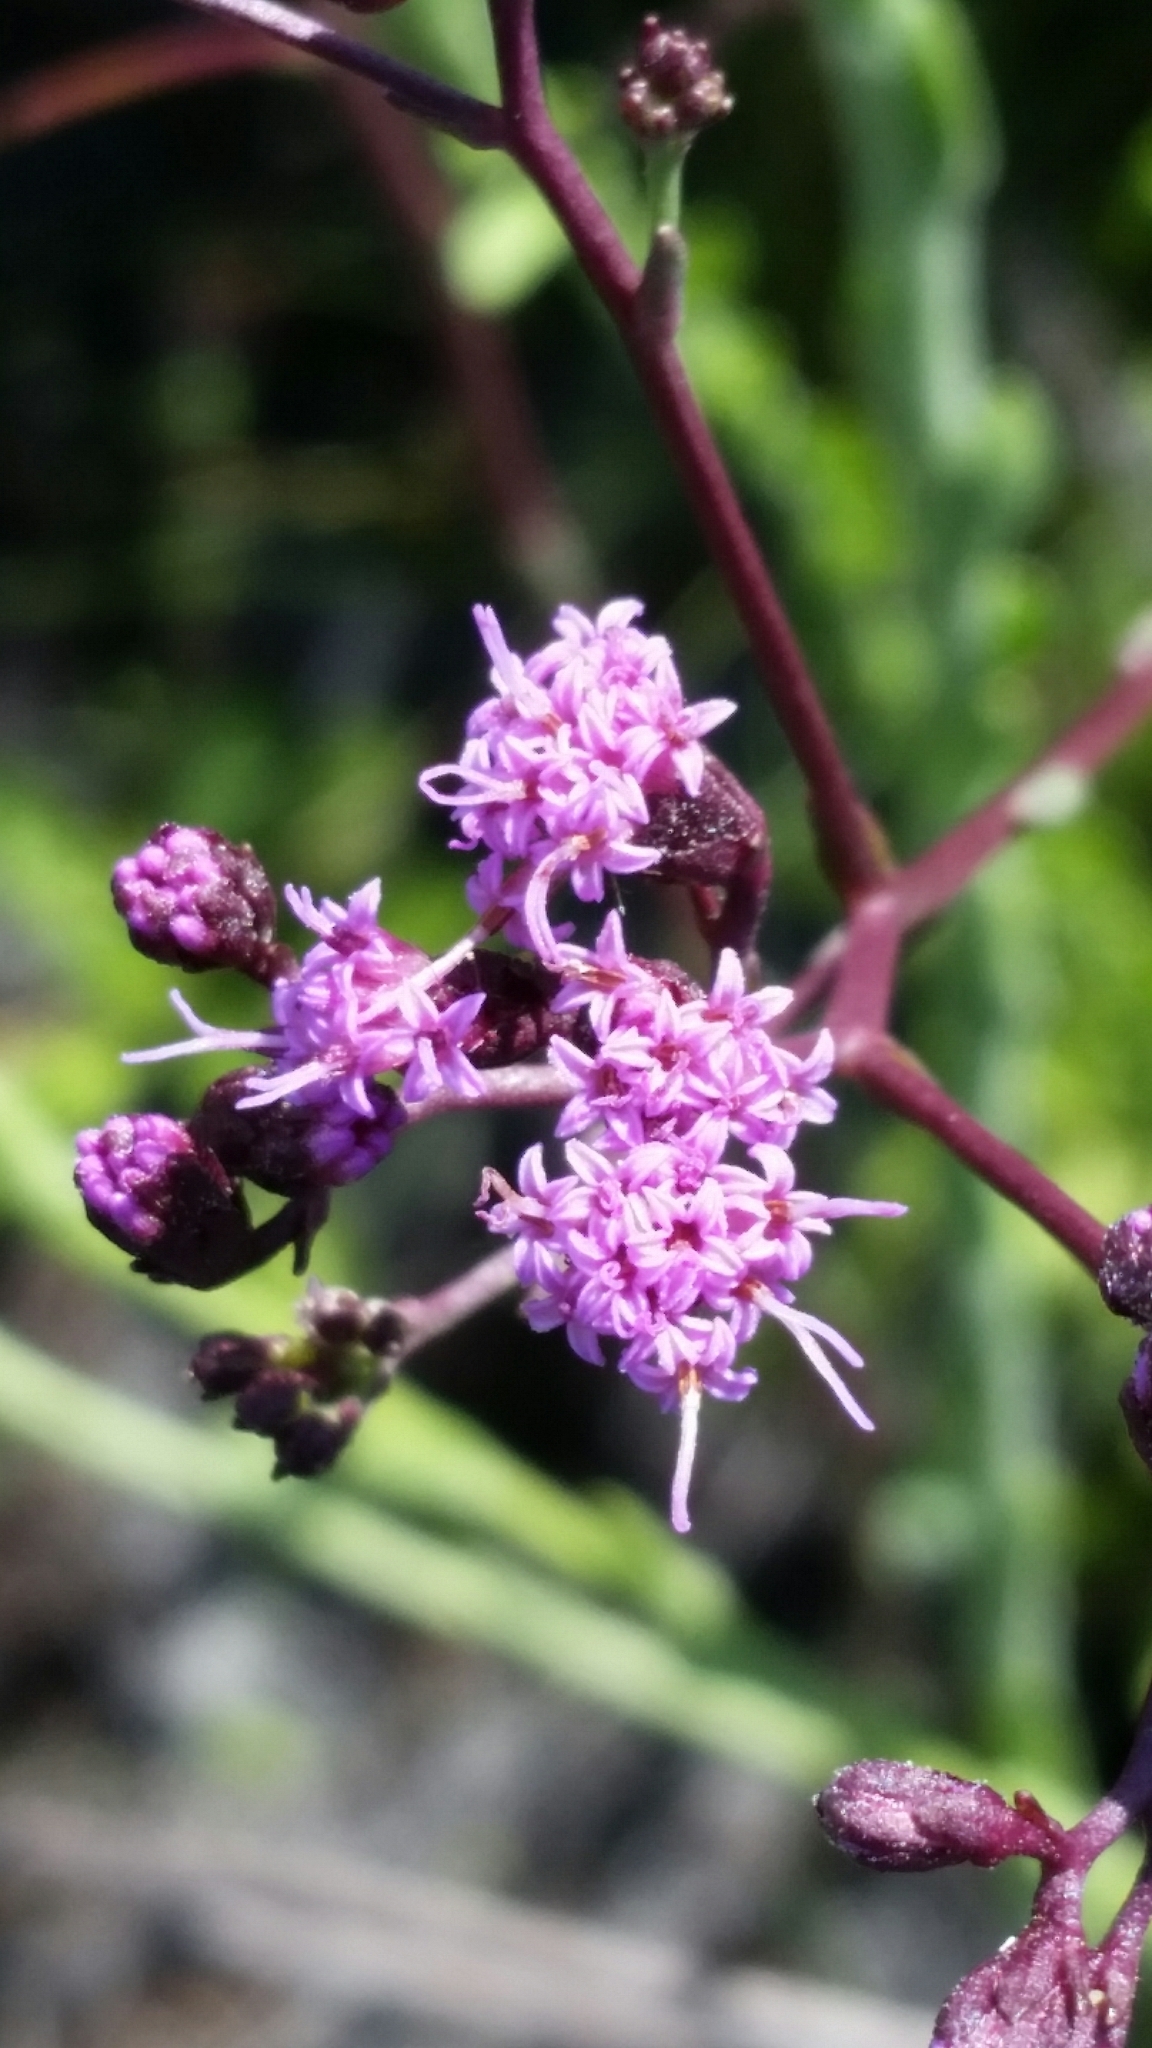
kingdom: Plantae
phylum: Tracheophyta
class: Magnoliopsida
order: Asterales
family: Asteraceae
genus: Carphephorus
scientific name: Carphephorus
